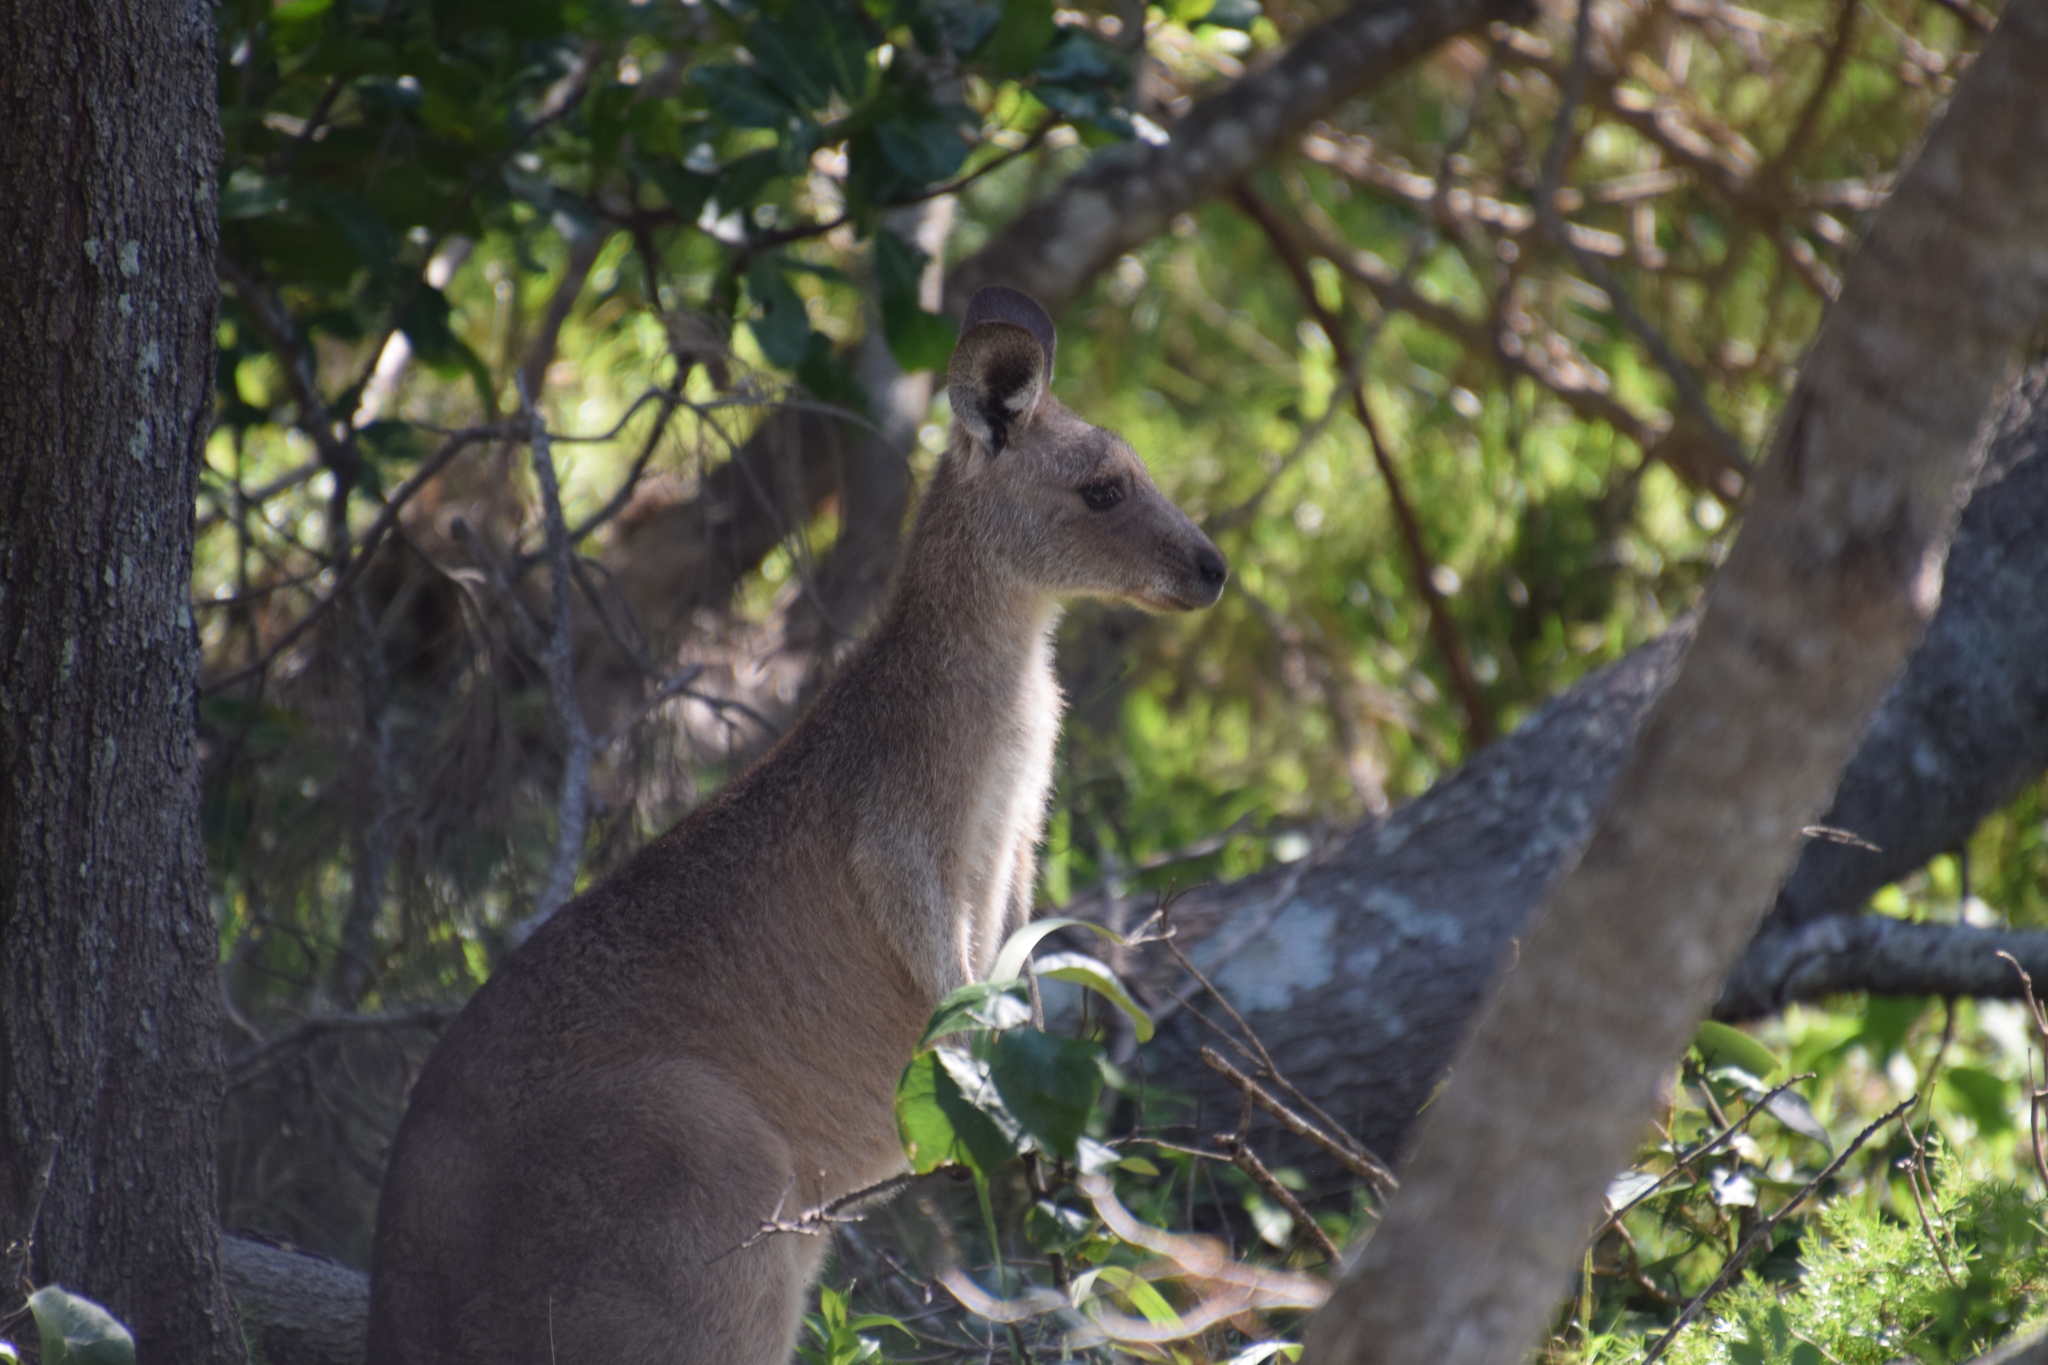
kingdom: Animalia
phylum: Chordata
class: Mammalia
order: Diprotodontia
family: Macropodidae
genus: Macropus
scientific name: Macropus giganteus
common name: Eastern grey kangaroo
